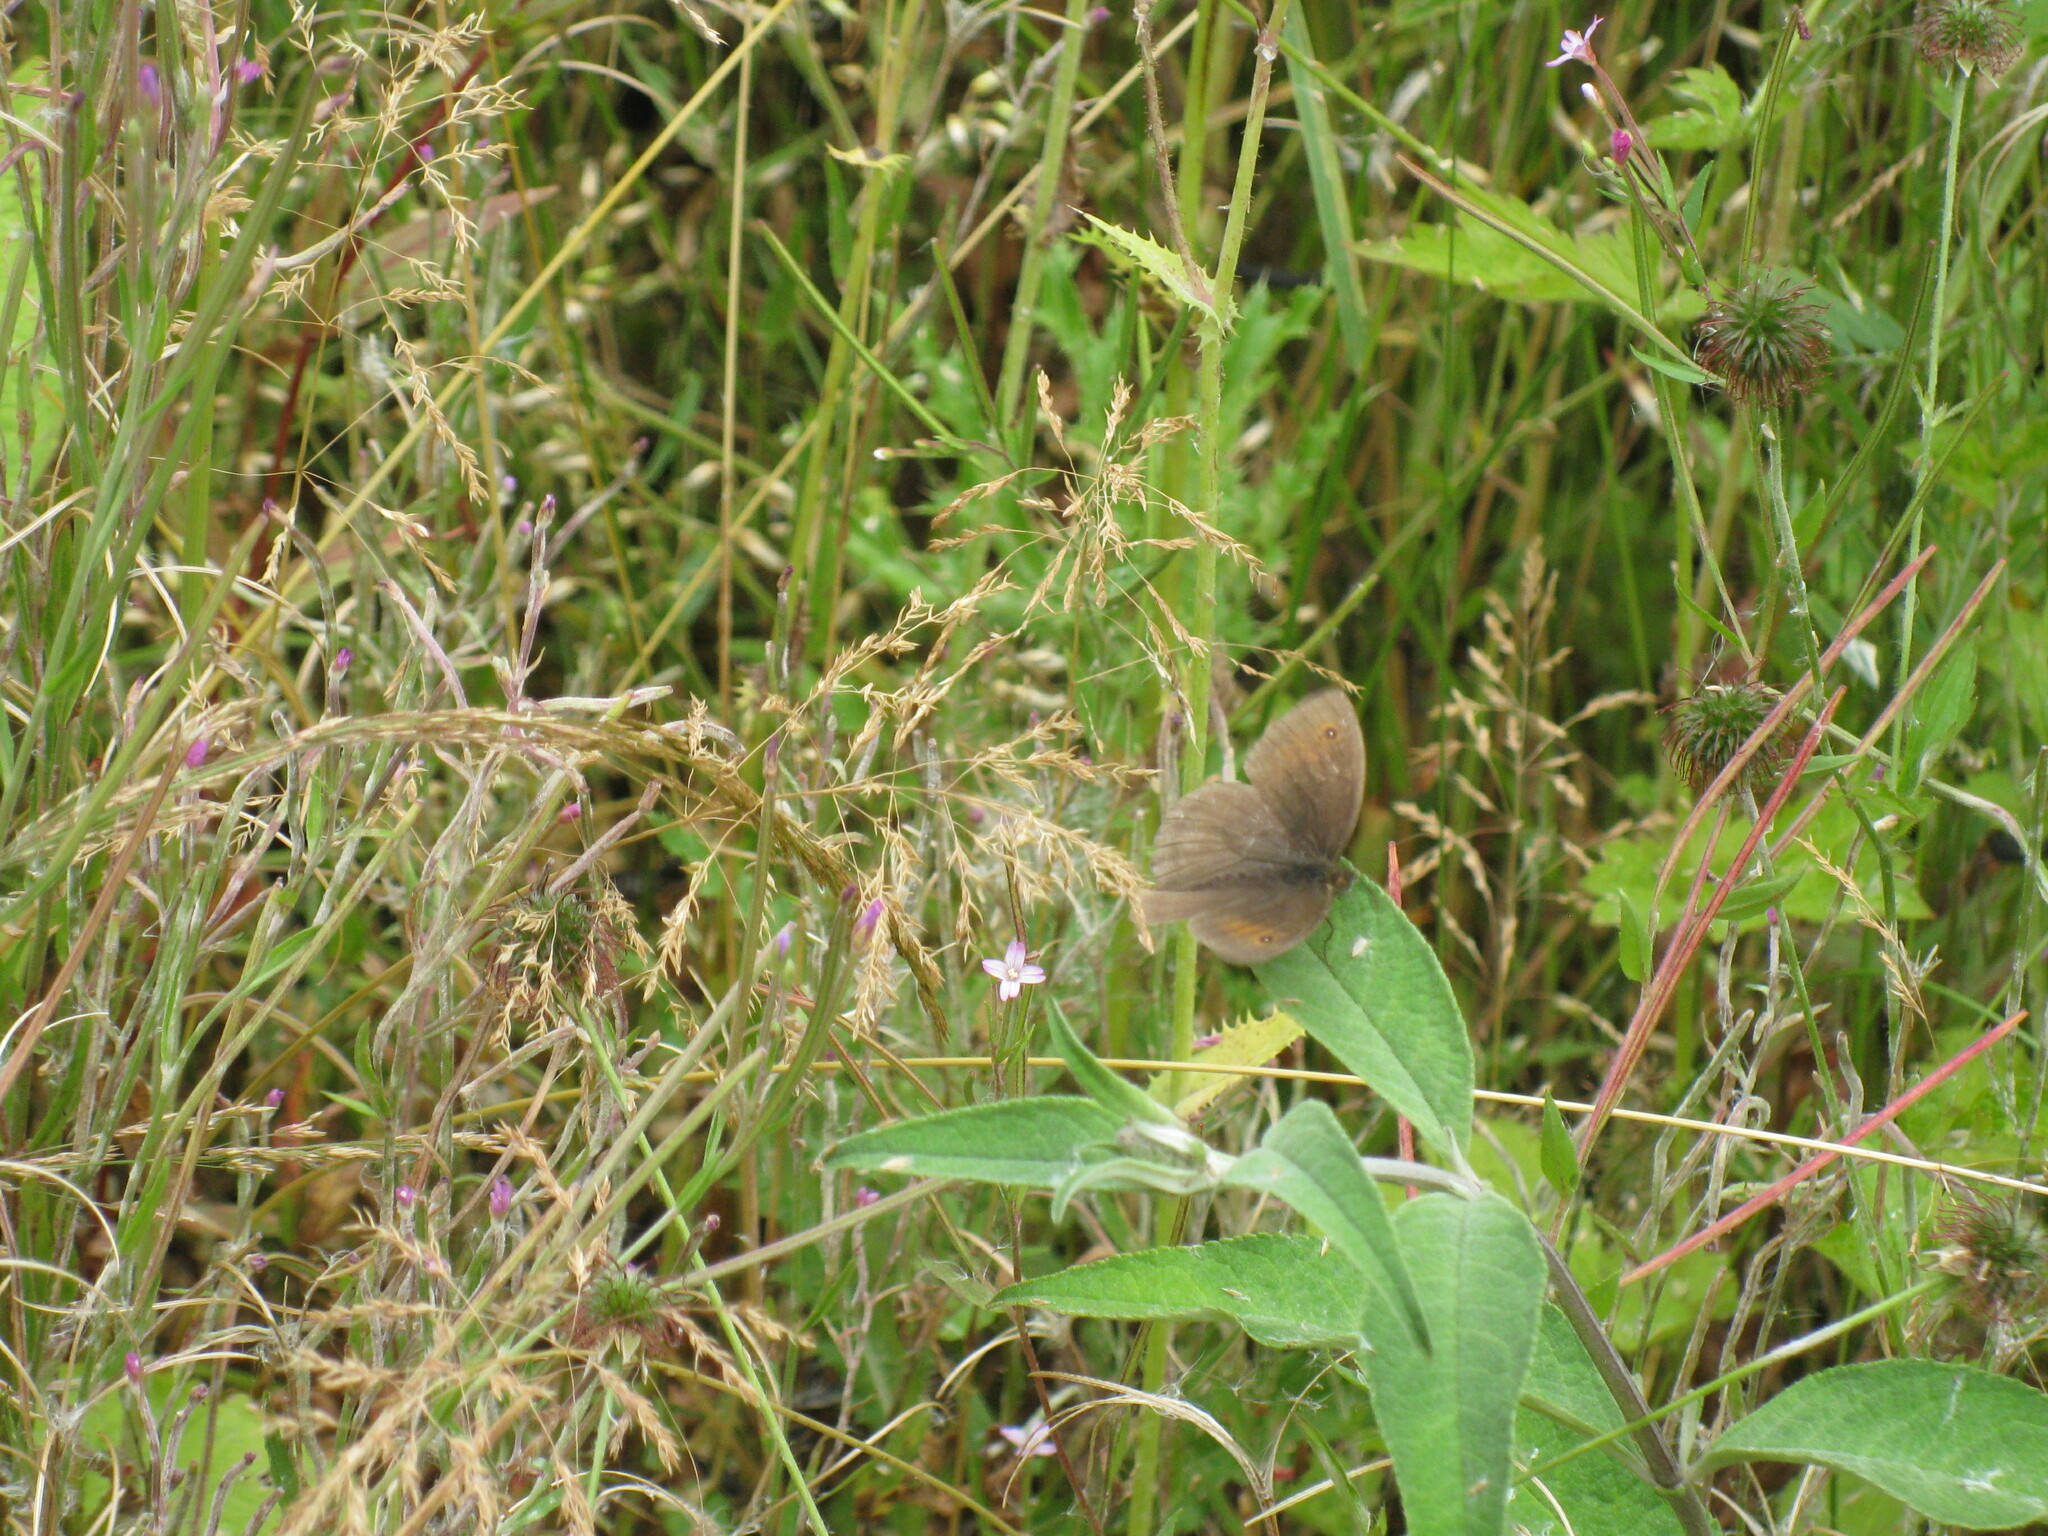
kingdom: Animalia
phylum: Arthropoda
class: Insecta
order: Lepidoptera
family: Nymphalidae
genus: Maniola
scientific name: Maniola jurtina
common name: Meadow brown
